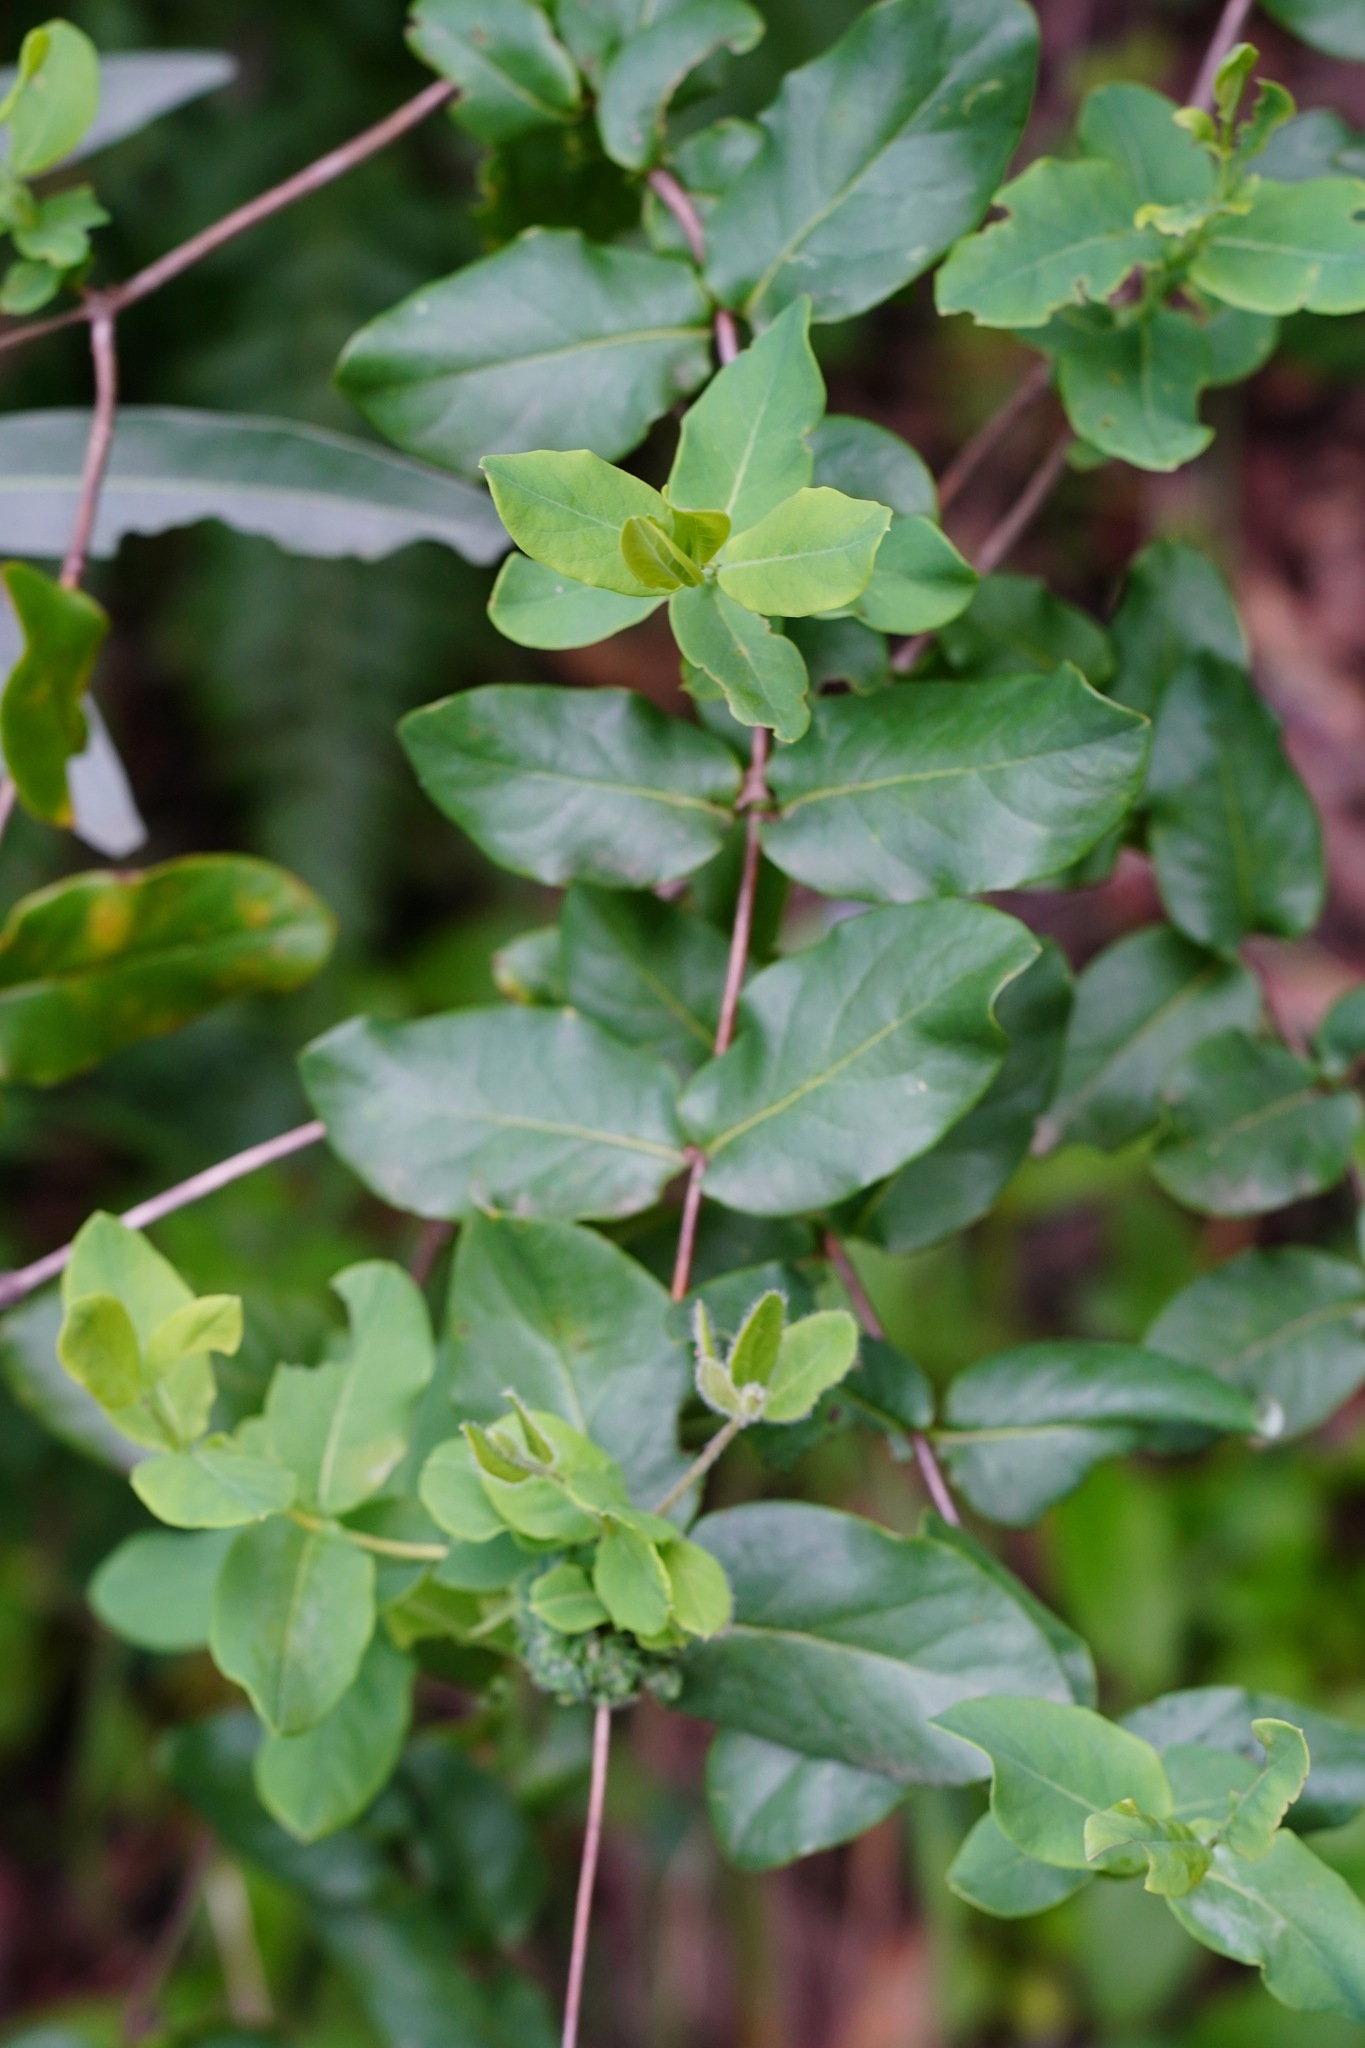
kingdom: Plantae
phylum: Tracheophyta
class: Magnoliopsida
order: Dipsacales
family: Caprifoliaceae
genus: Lonicera
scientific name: Lonicera hispidula
